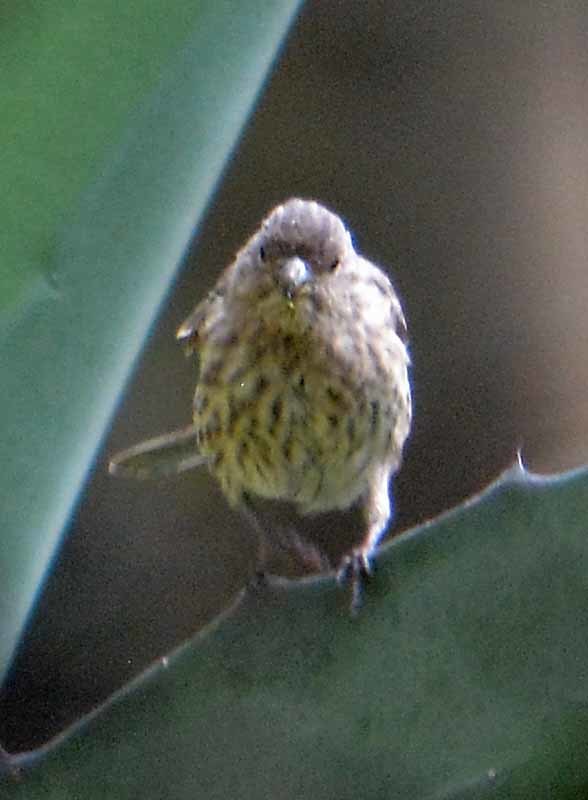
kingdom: Animalia
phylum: Chordata
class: Aves
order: Passeriformes
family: Fringillidae
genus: Haemorhous
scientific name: Haemorhous mexicanus
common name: House finch
